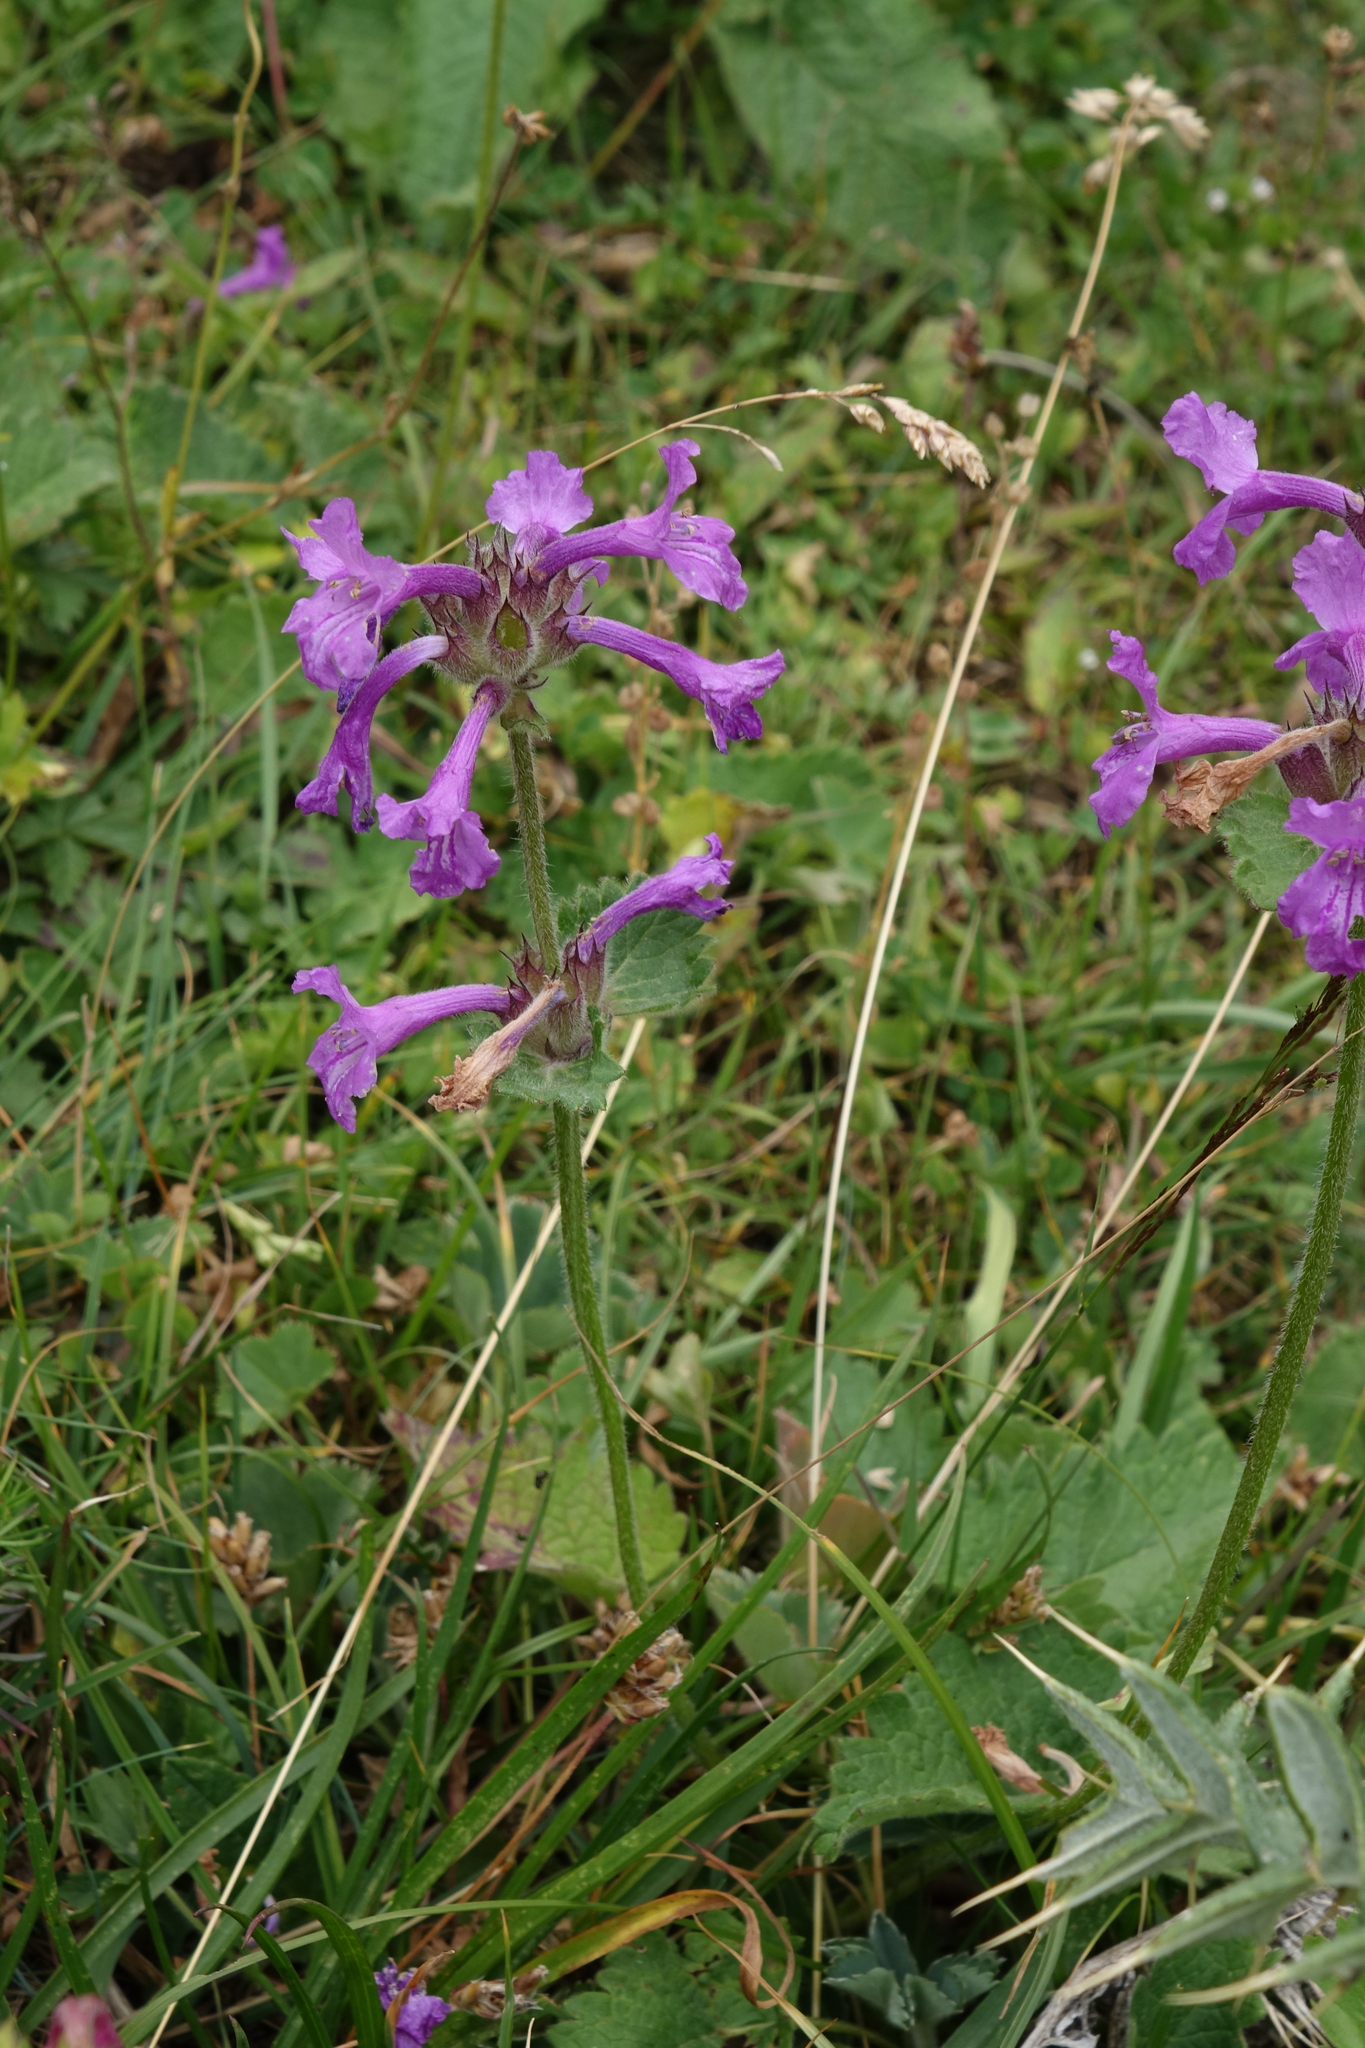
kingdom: Plantae
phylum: Tracheophyta
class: Magnoliopsida
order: Lamiales
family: Lamiaceae
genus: Betonica
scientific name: Betonica macrantha
